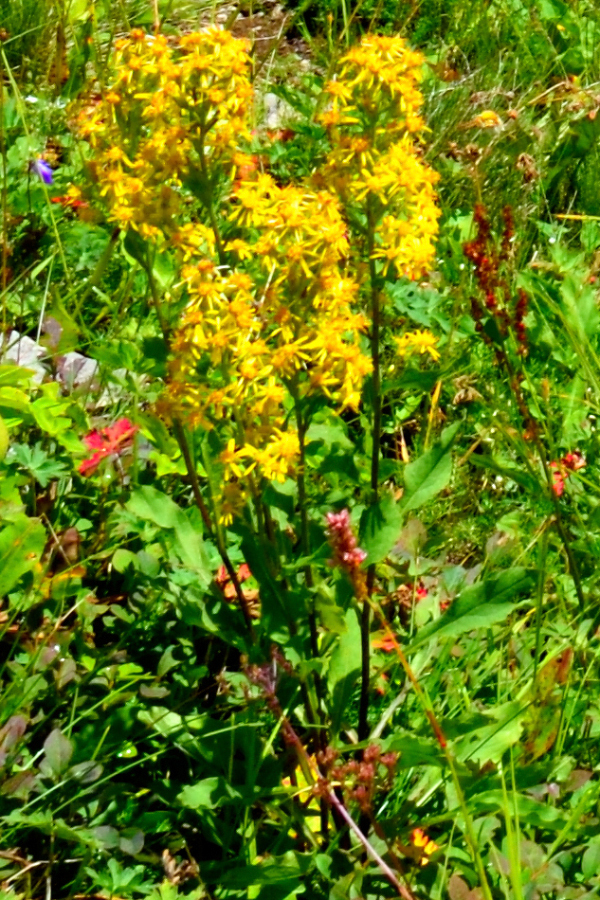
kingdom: Plantae
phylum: Tracheophyta
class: Magnoliopsida
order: Asterales
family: Asteraceae
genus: Solidago
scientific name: Solidago virgaurea
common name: Goldenrod
